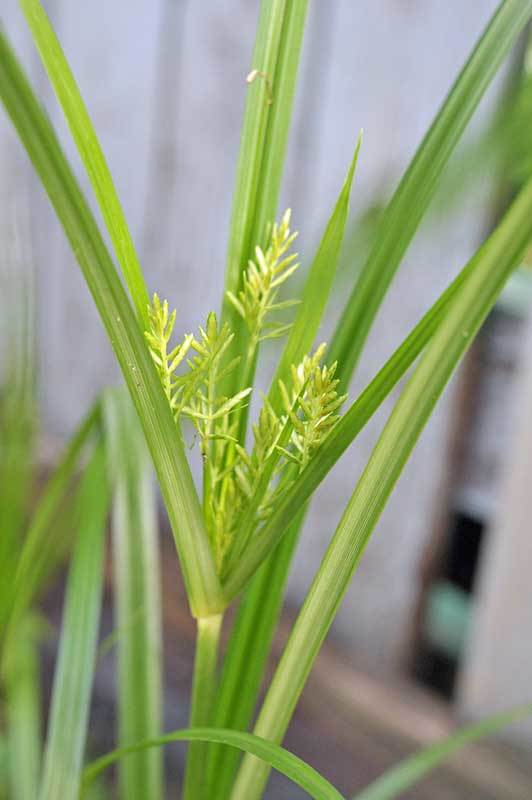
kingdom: Plantae
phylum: Tracheophyta
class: Liliopsida
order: Poales
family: Cyperaceae
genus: Cyperus
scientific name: Cyperus esculentus
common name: Yellow nutsedge
